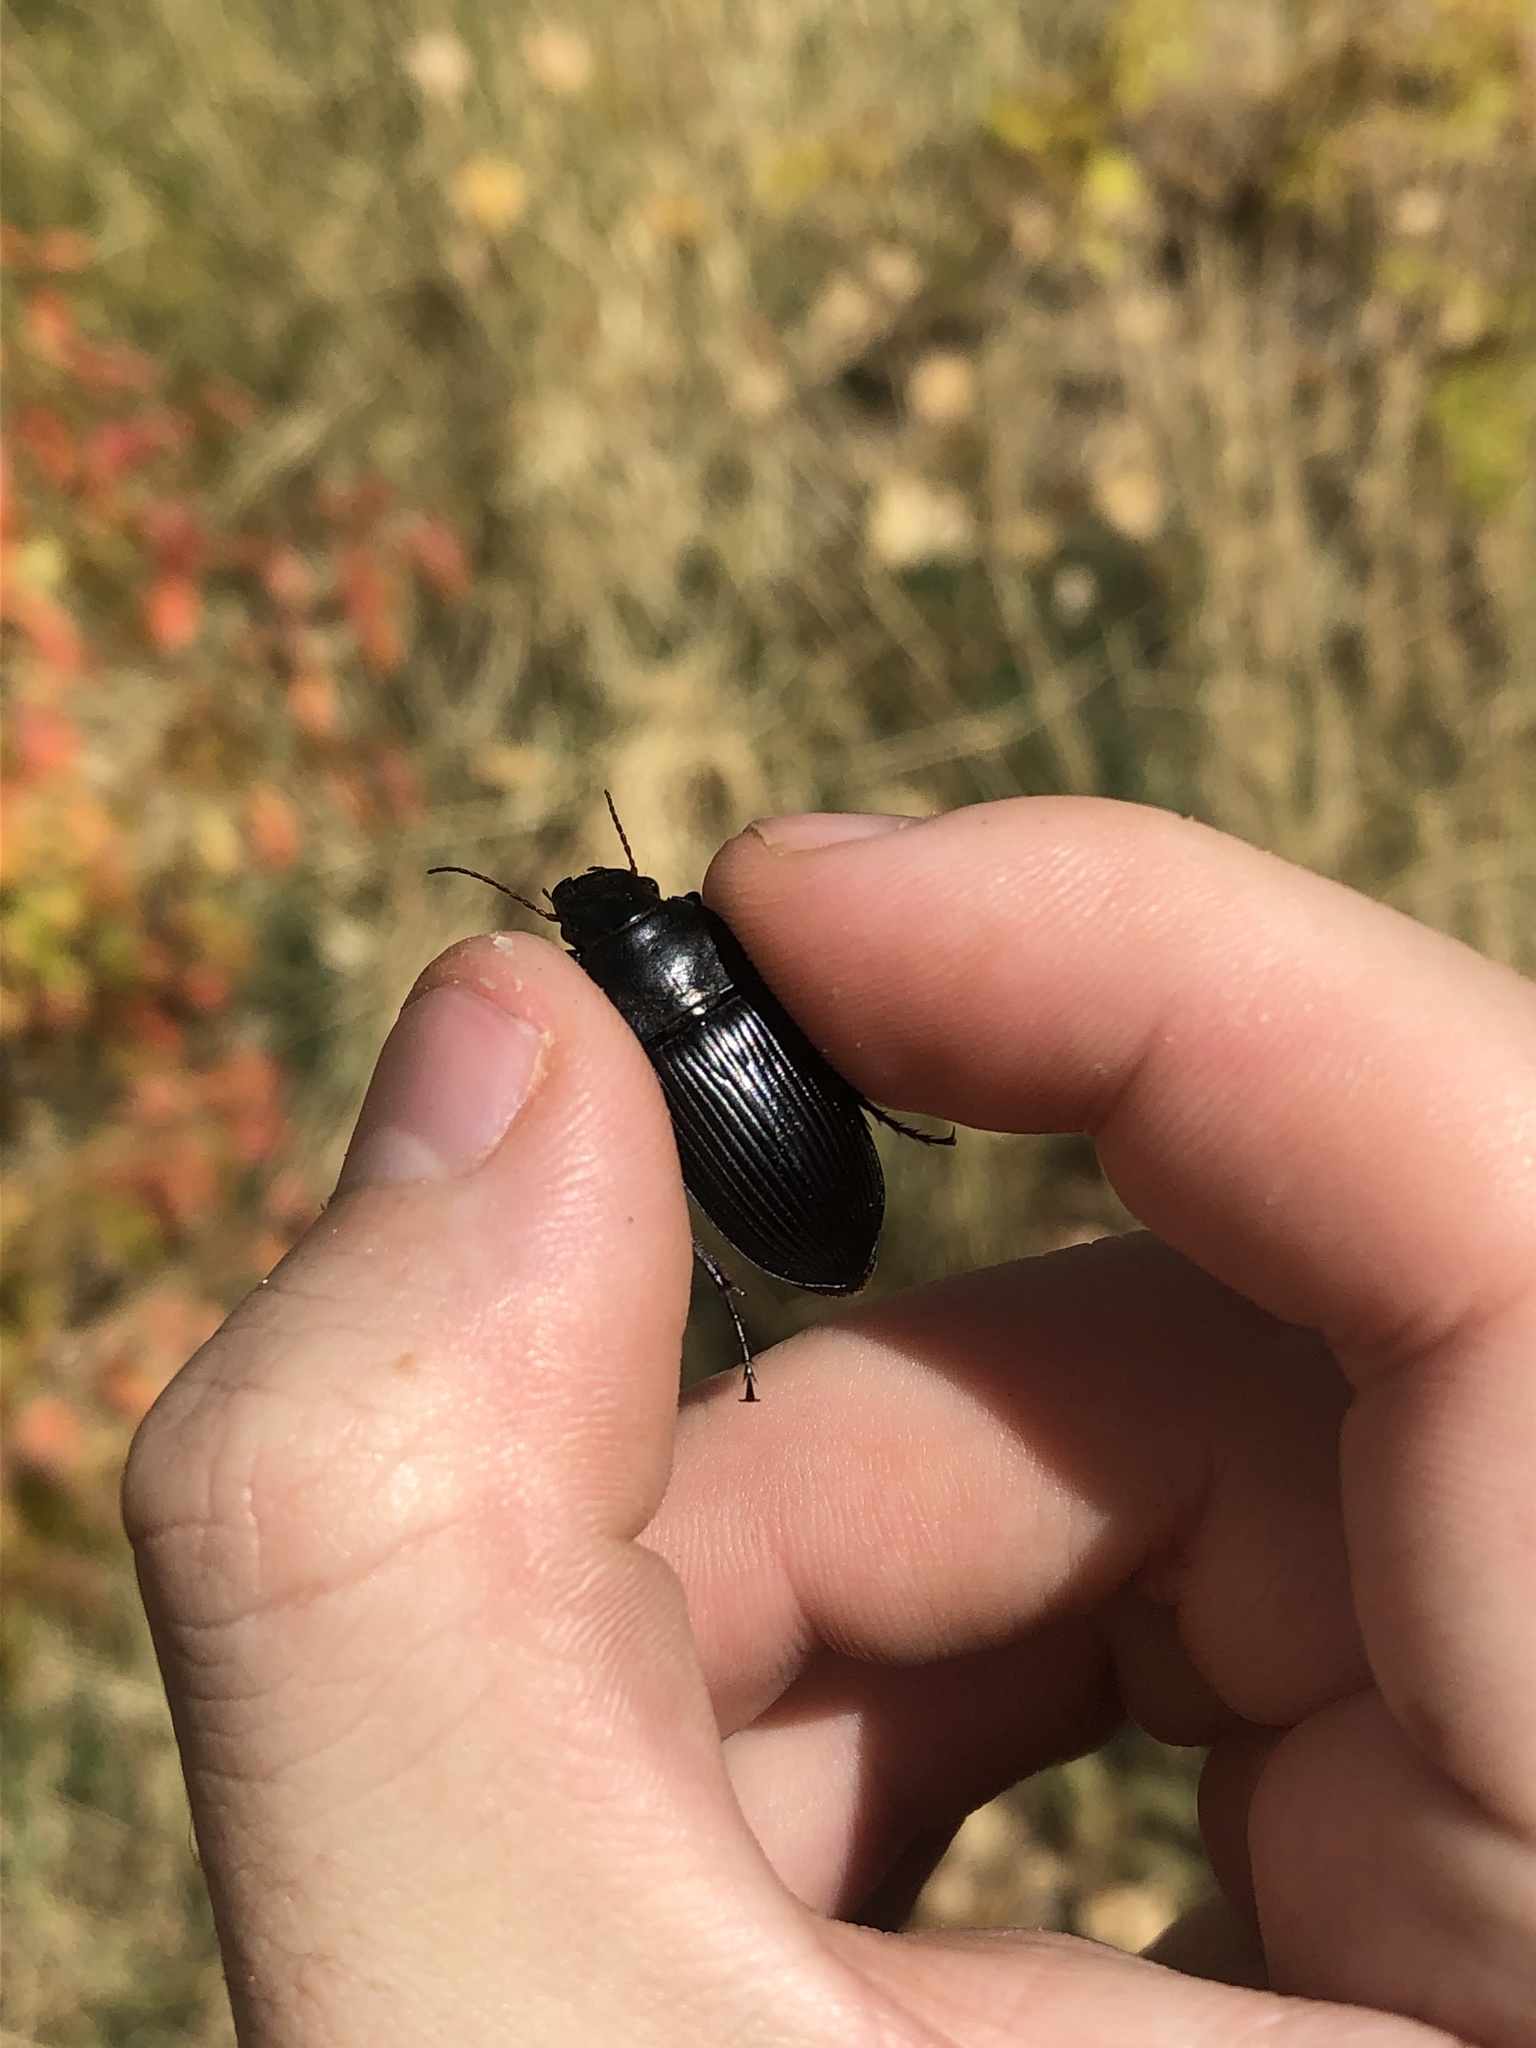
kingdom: Animalia
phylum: Arthropoda
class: Insecta
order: Coleoptera
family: Carabidae
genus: Harpalus
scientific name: Harpalus caliginosus
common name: Murky ground beetle
